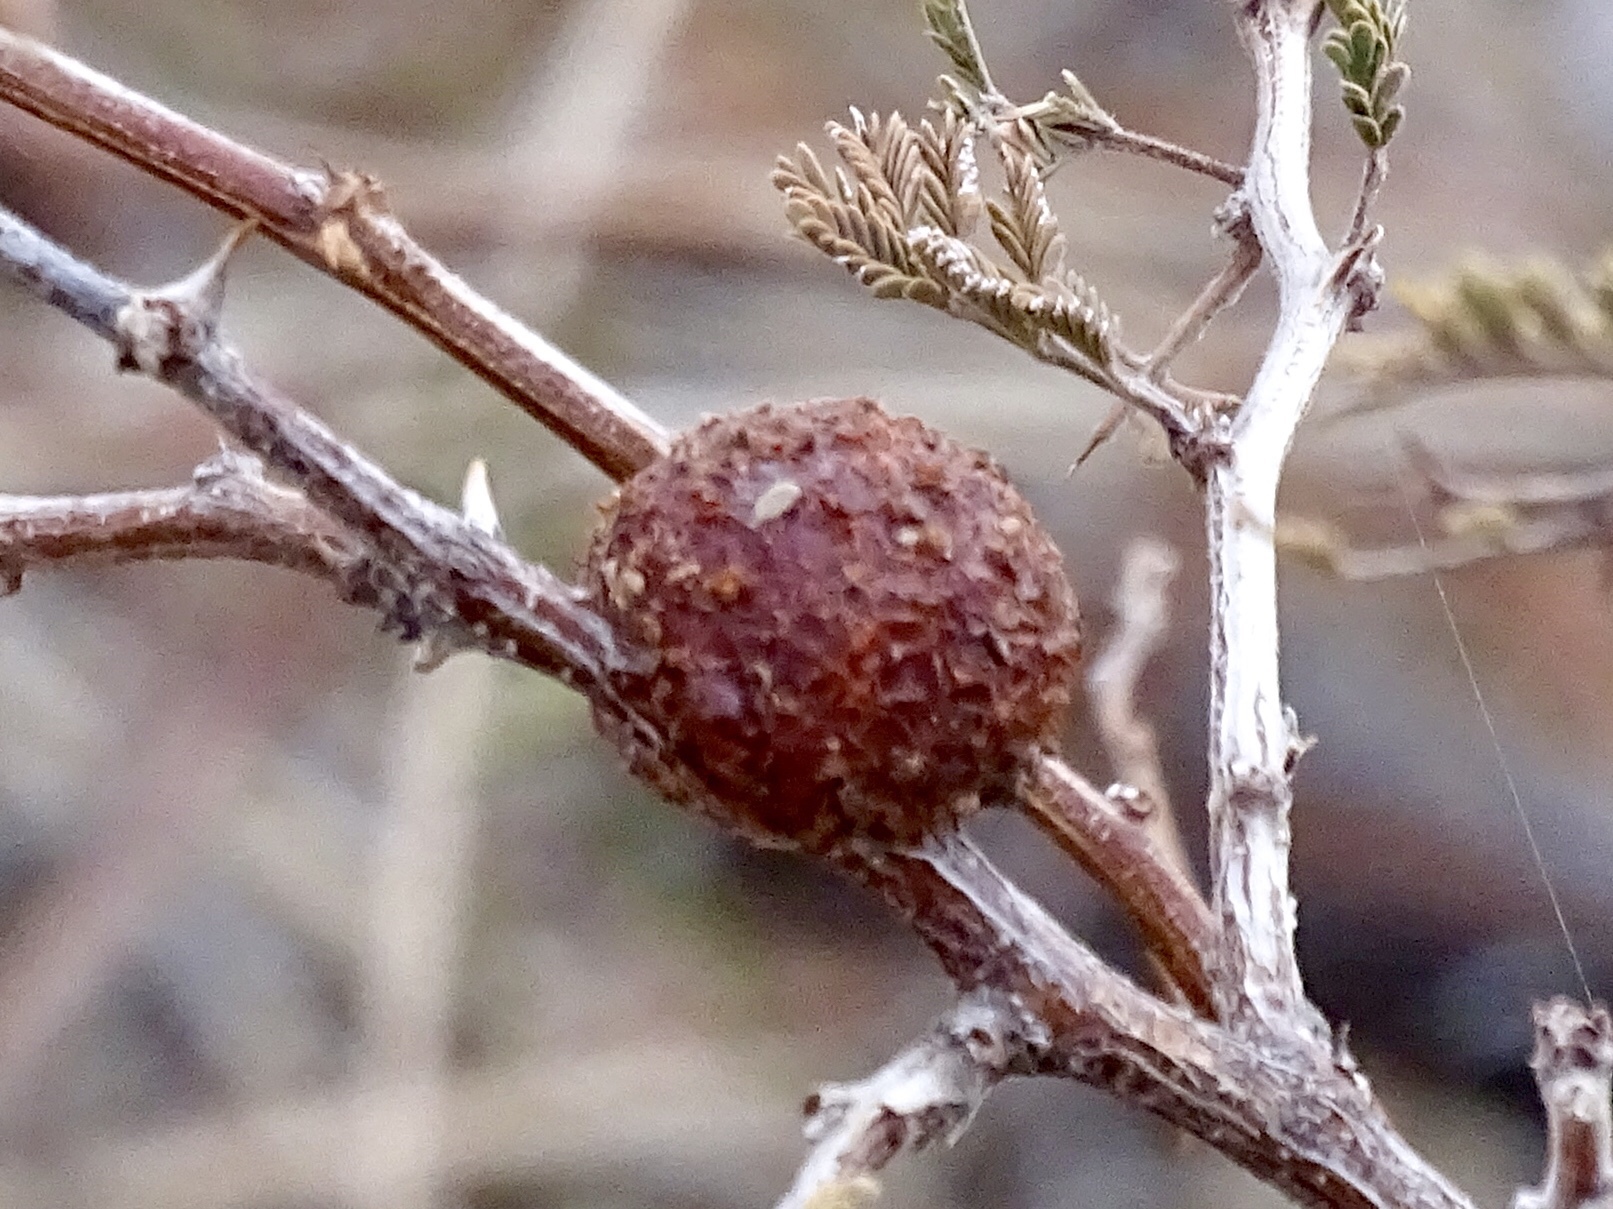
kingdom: Animalia
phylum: Arthropoda
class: Insecta
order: Hymenoptera
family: Tanaostigmatidae
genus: Tanaostigmodes
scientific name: Tanaostigmodes howardii
